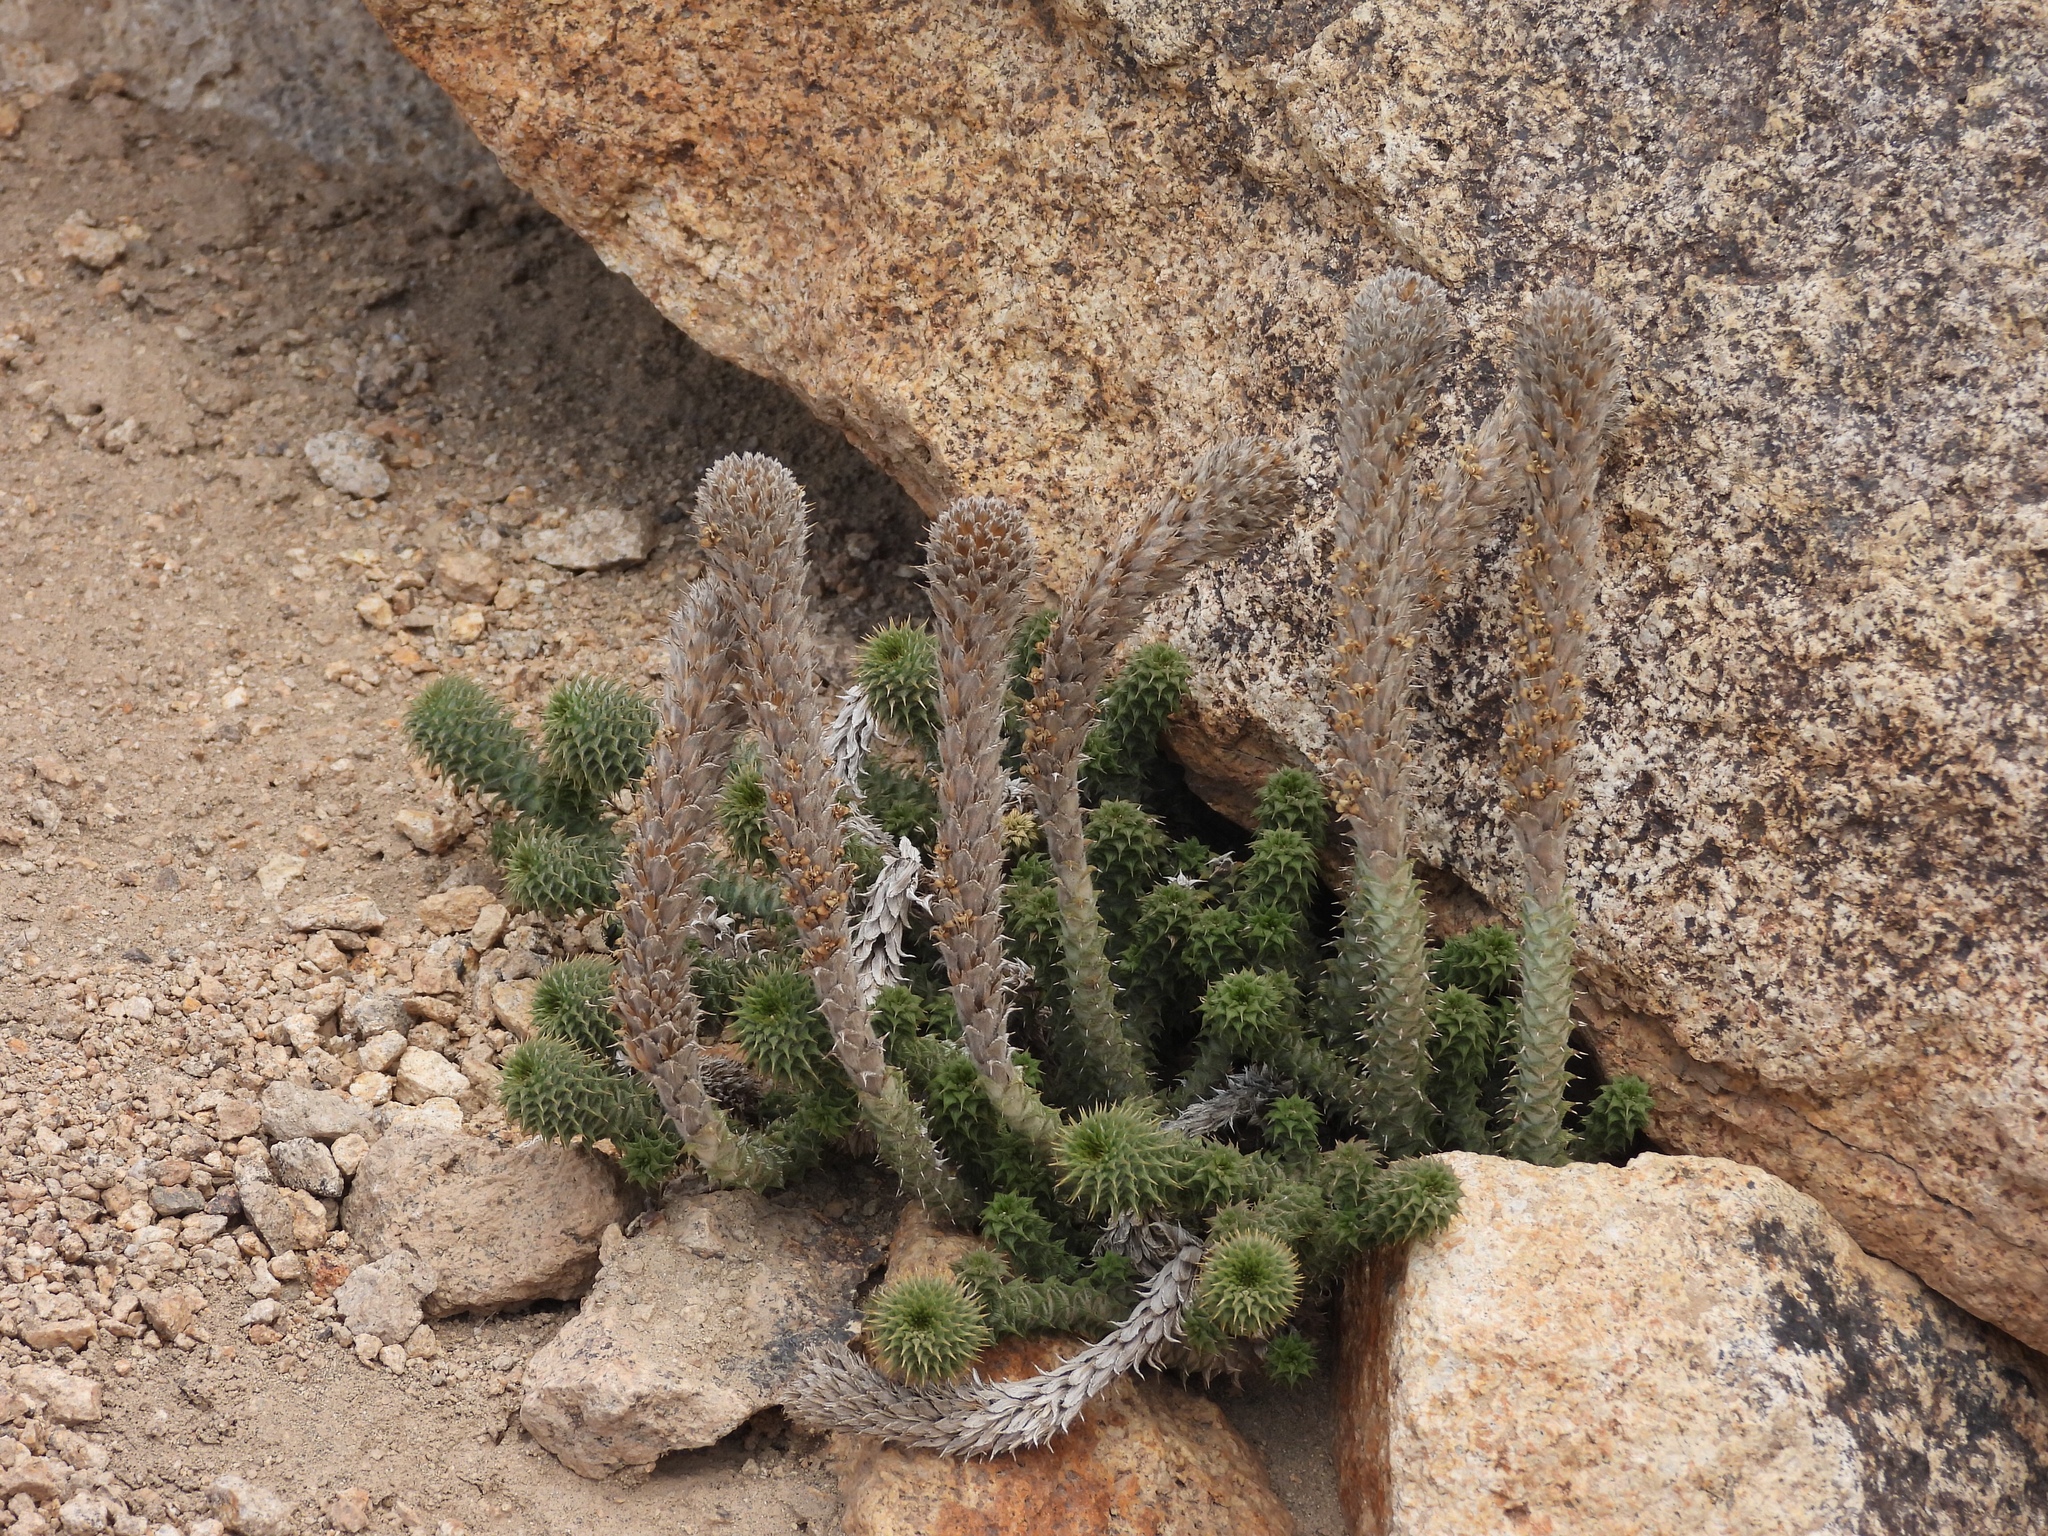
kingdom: Plantae
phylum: Tracheophyta
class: Magnoliopsida
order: Asterales
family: Asteraceae
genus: Nassauvia
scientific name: Nassauvia revoluta
